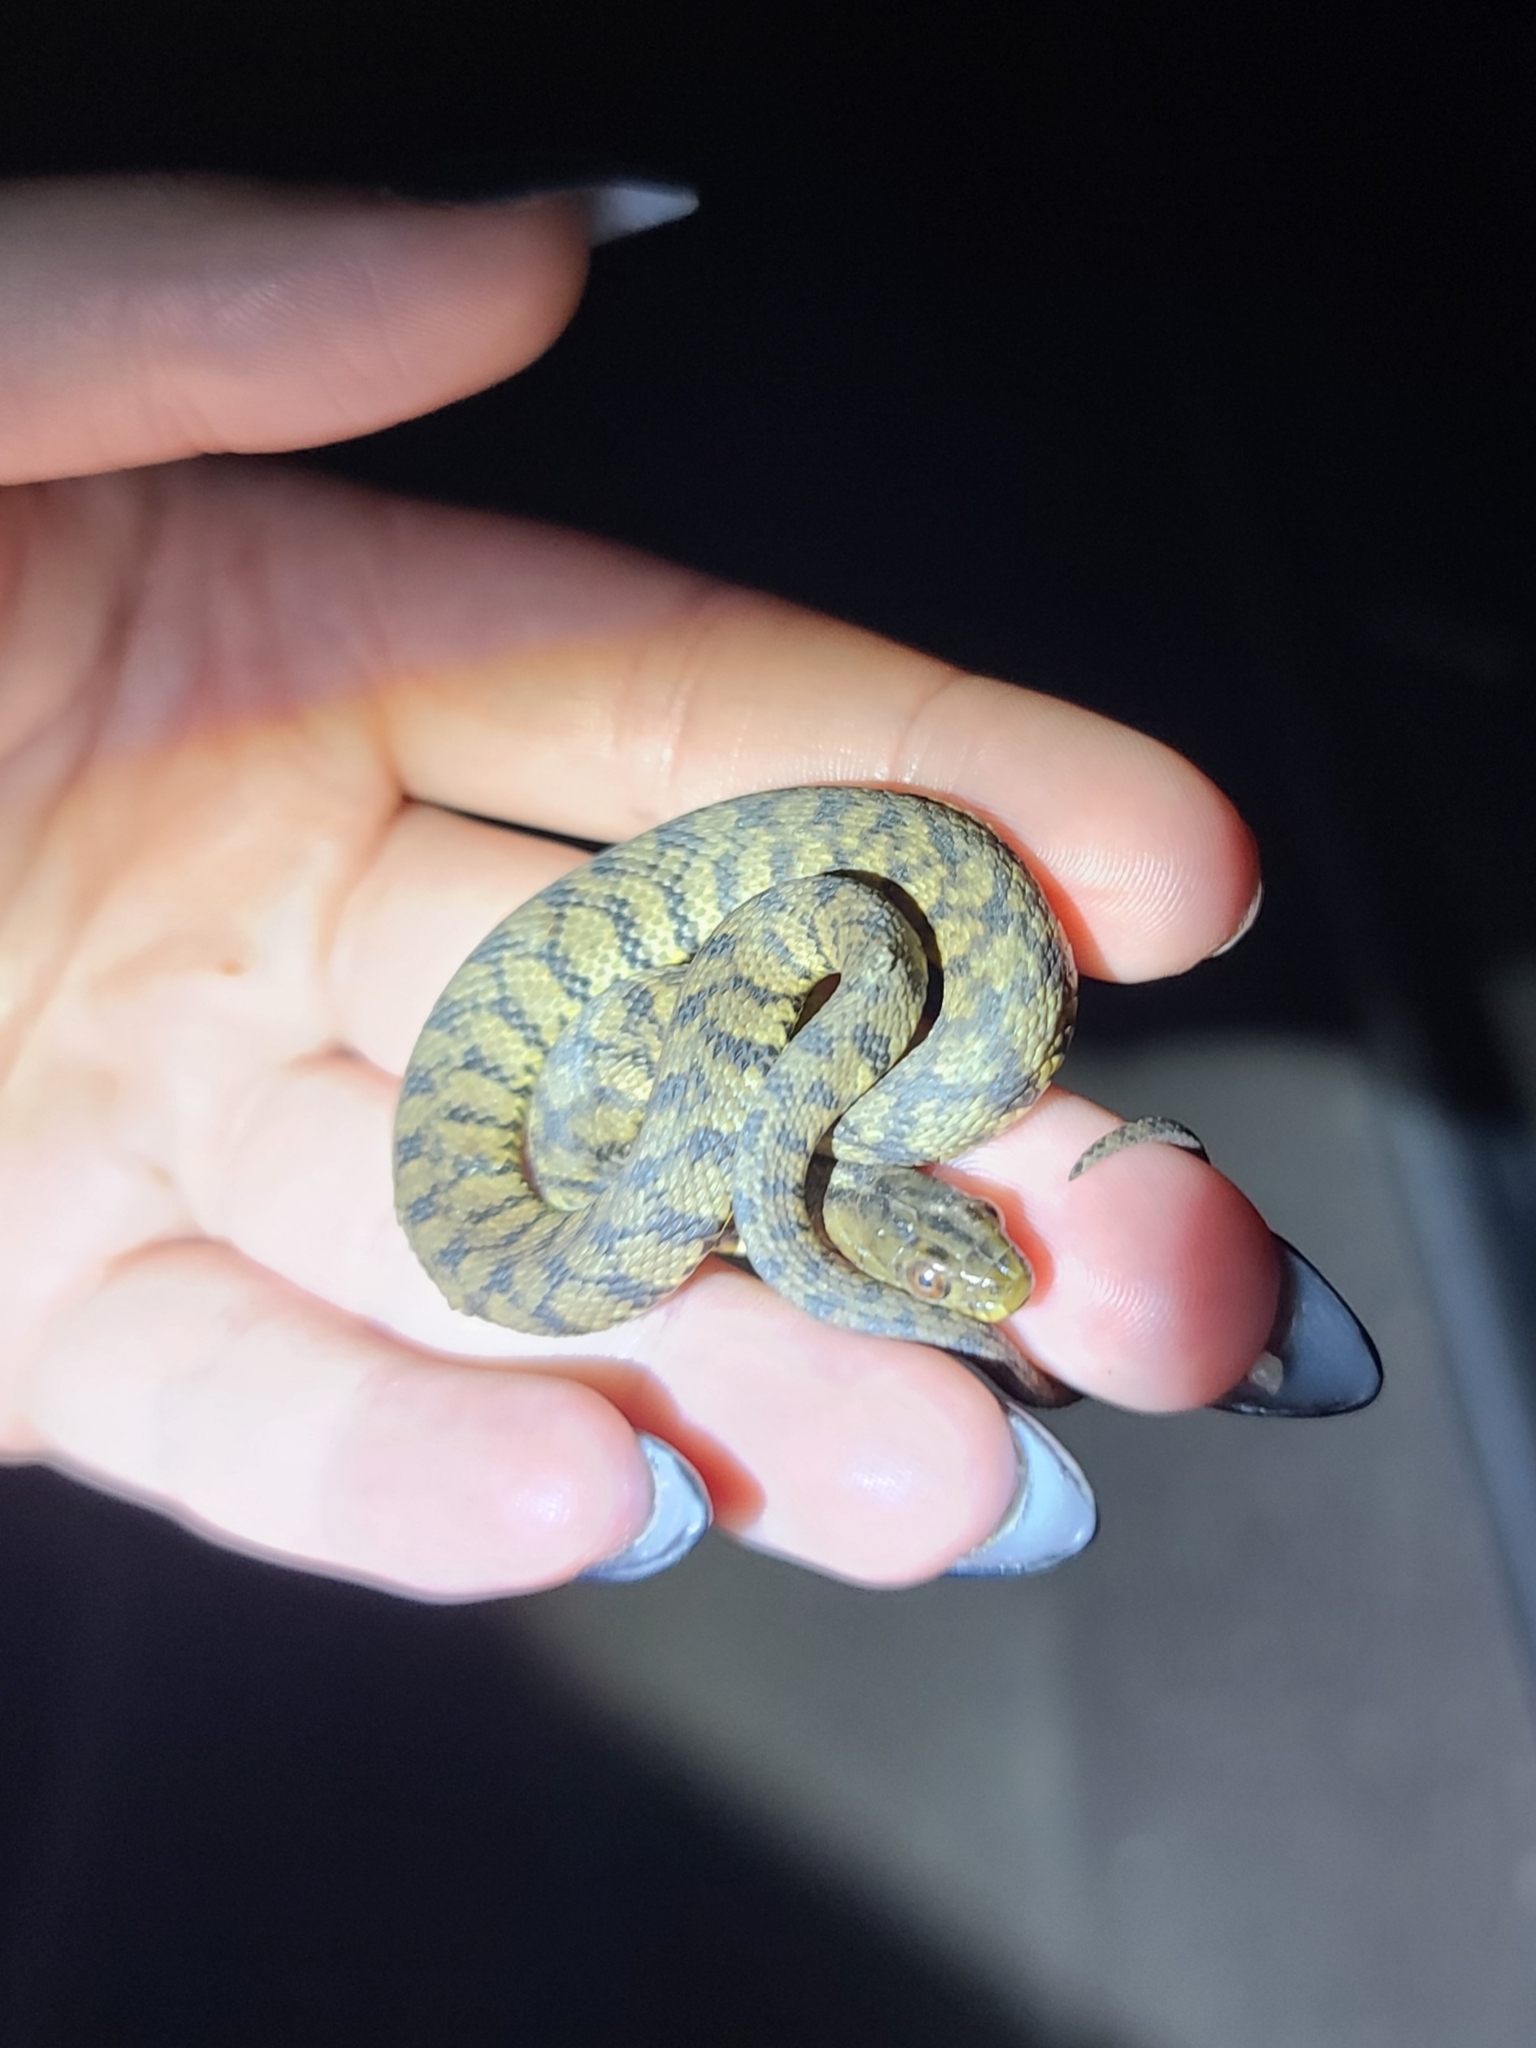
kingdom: Animalia
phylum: Chordata
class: Squamata
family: Colubridae
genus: Nerodia
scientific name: Nerodia rhombifer
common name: Diamondback water snake
